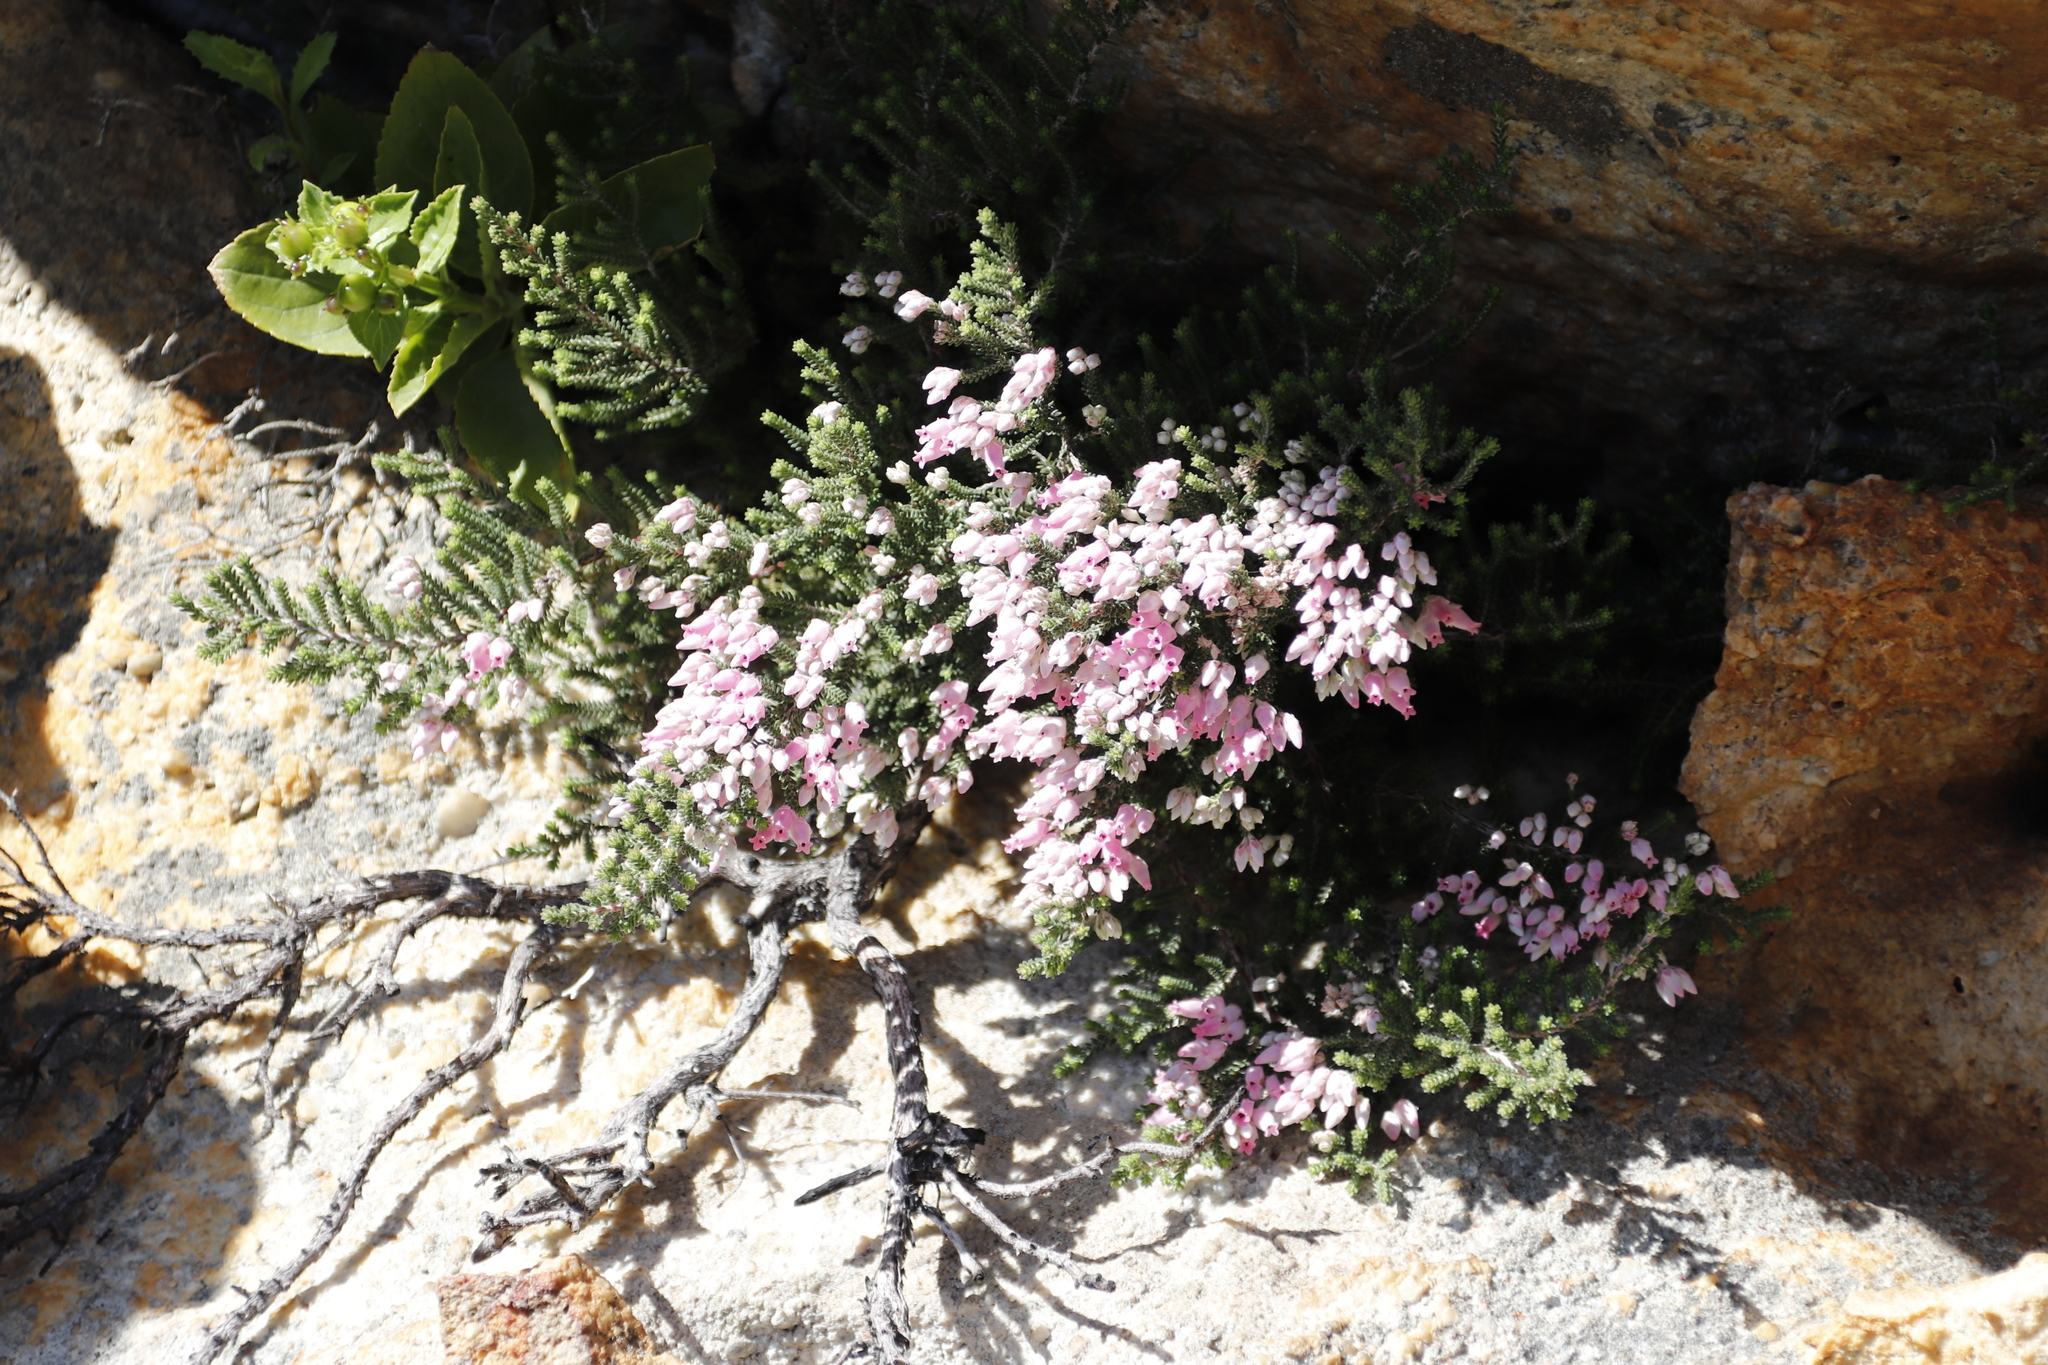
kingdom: Plantae
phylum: Tracheophyta
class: Magnoliopsida
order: Ericales
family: Ericaceae
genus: Erica
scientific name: Erica modesta
